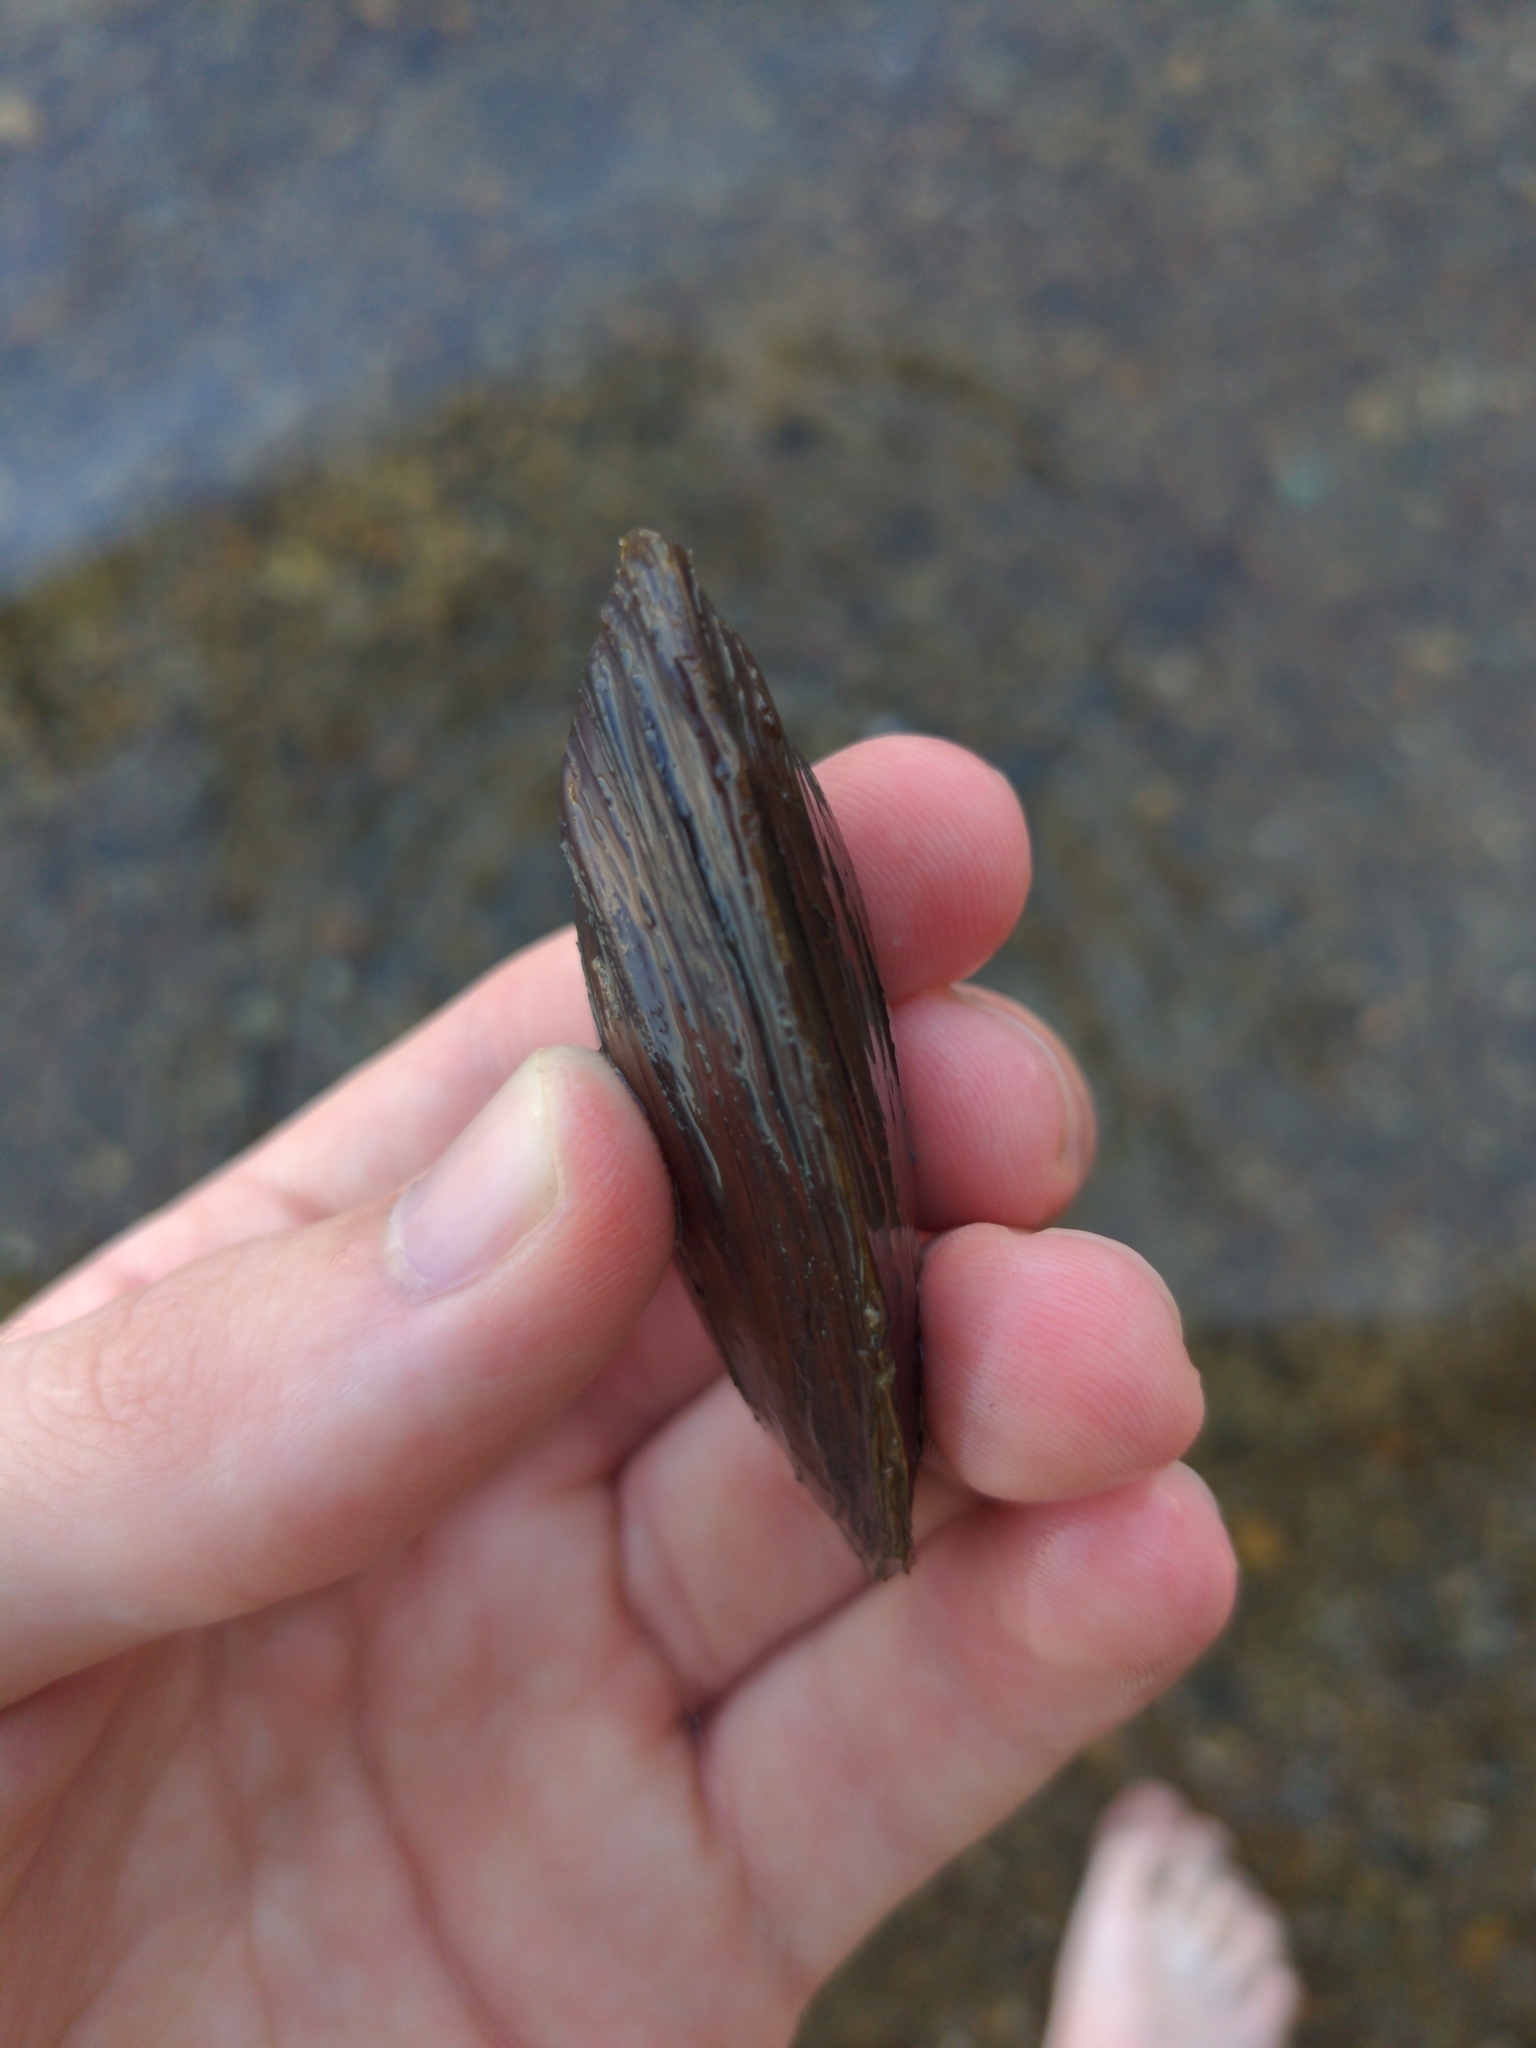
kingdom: Animalia
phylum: Mollusca
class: Bivalvia
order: Unionida
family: Unionidae
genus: Elliptio
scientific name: Elliptio complanata
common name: Eastern elliptio
